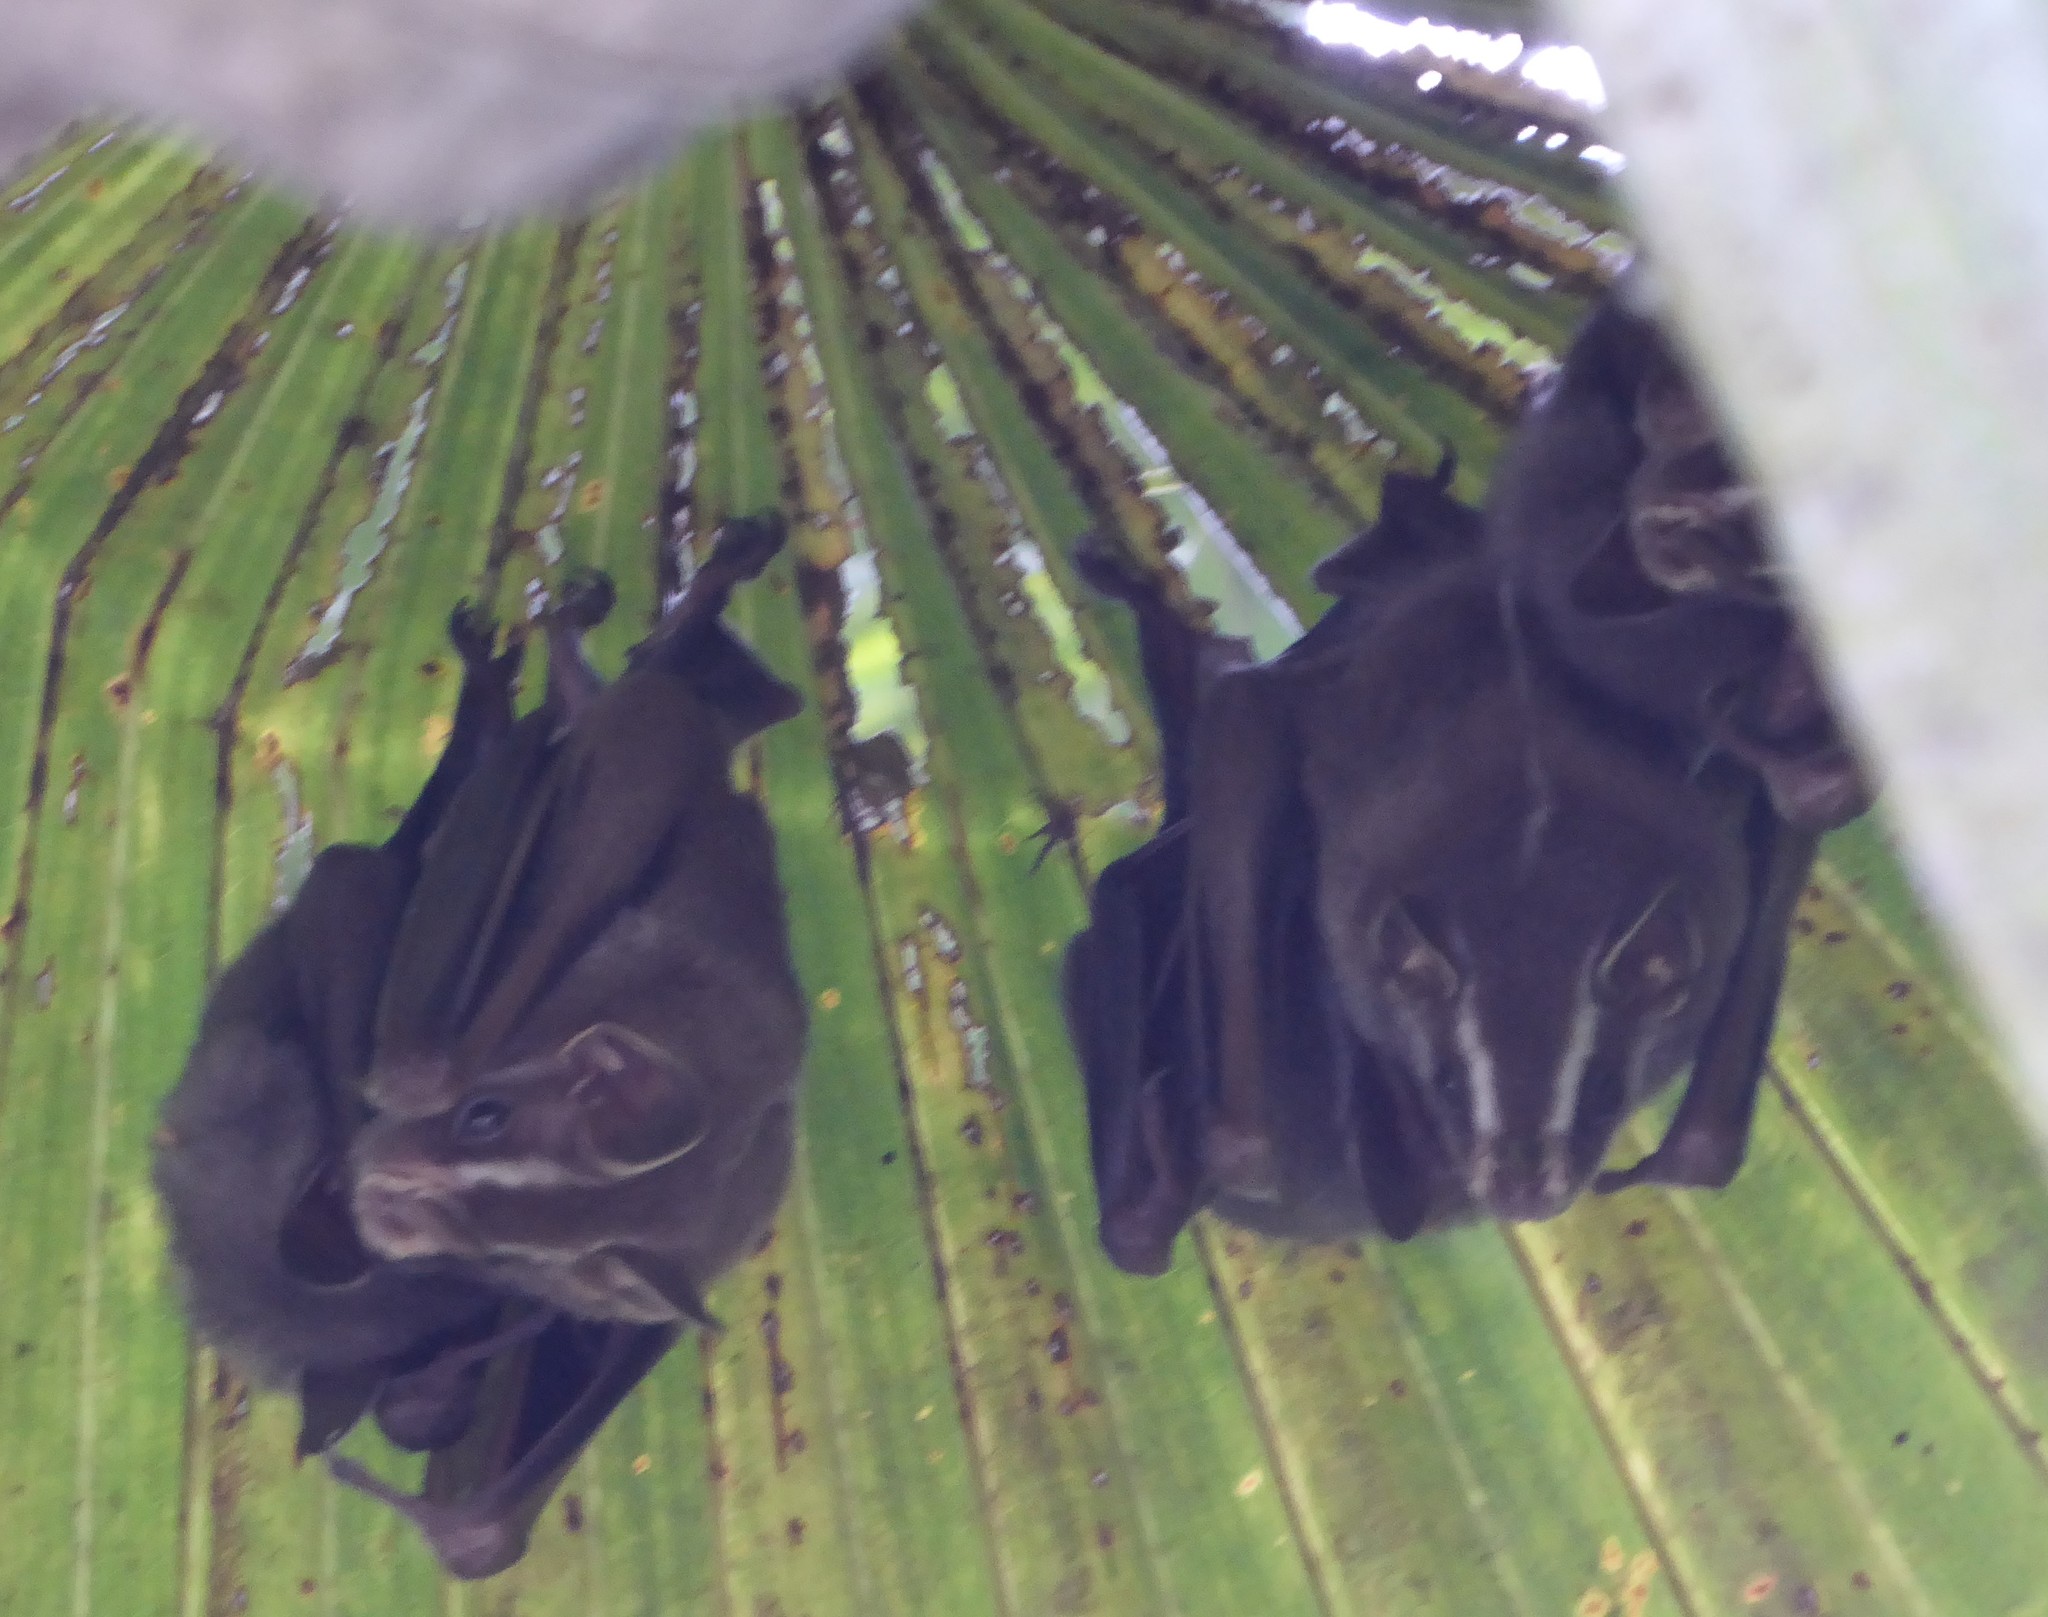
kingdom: Animalia
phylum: Chordata
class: Mammalia
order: Chiroptera
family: Phyllostomidae
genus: Uroderma
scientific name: Uroderma convexum
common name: Pacific tent-making bat
